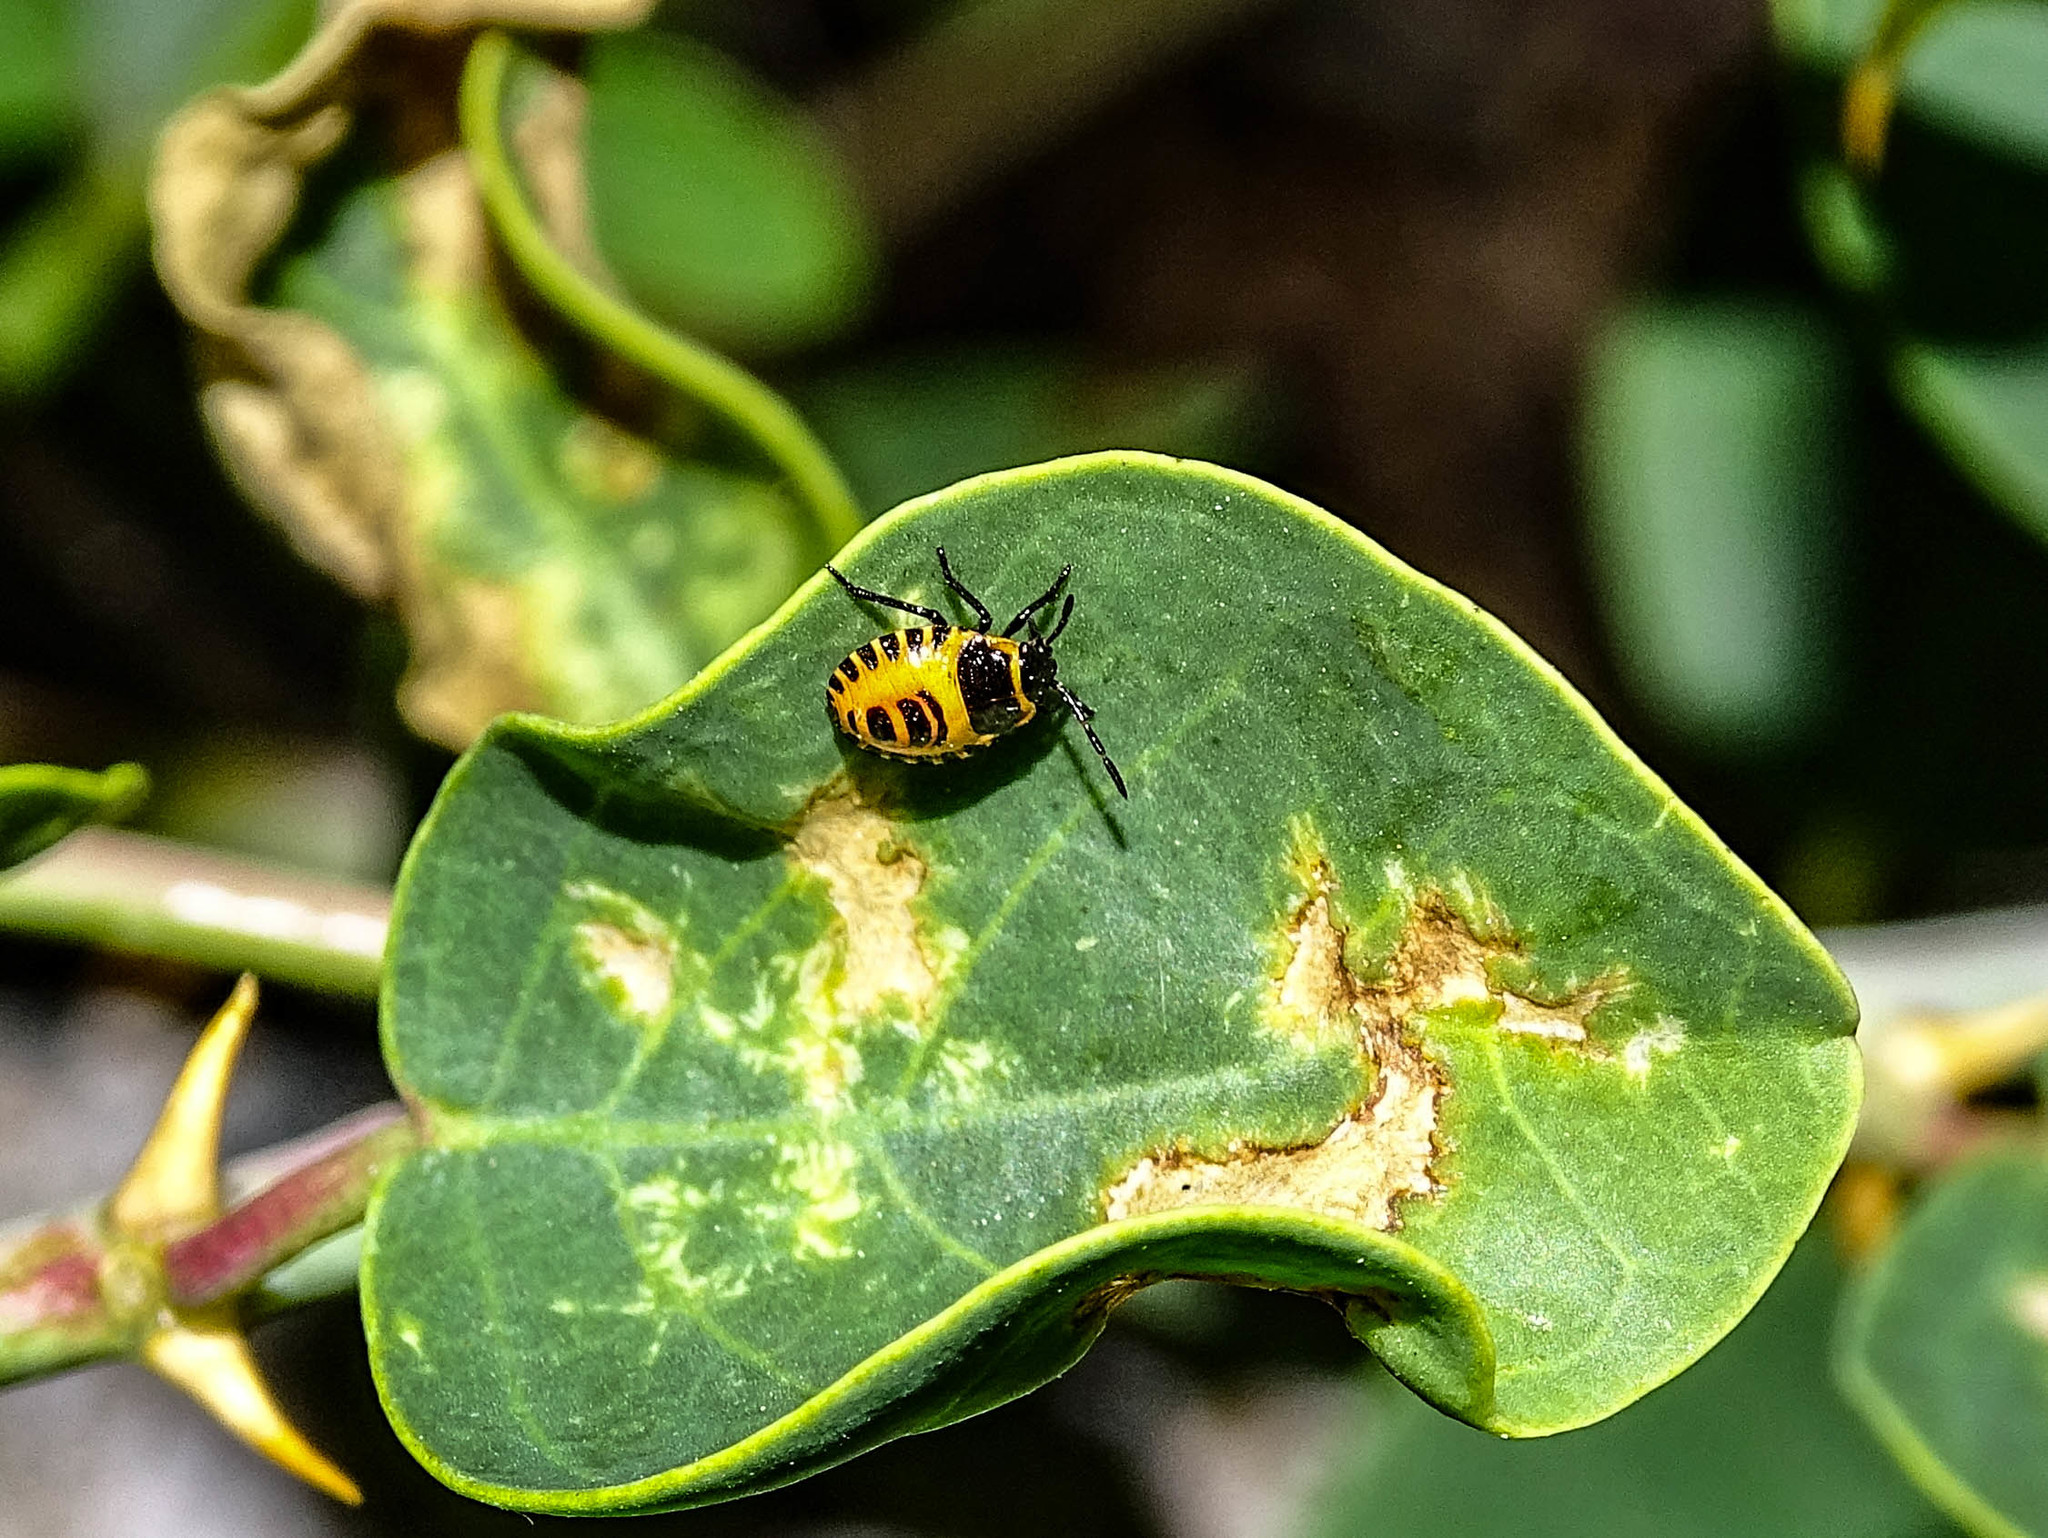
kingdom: Animalia
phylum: Arthropoda
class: Insecta
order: Hemiptera
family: Pentatomidae
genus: Eurydema
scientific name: Eurydema eckerleini
